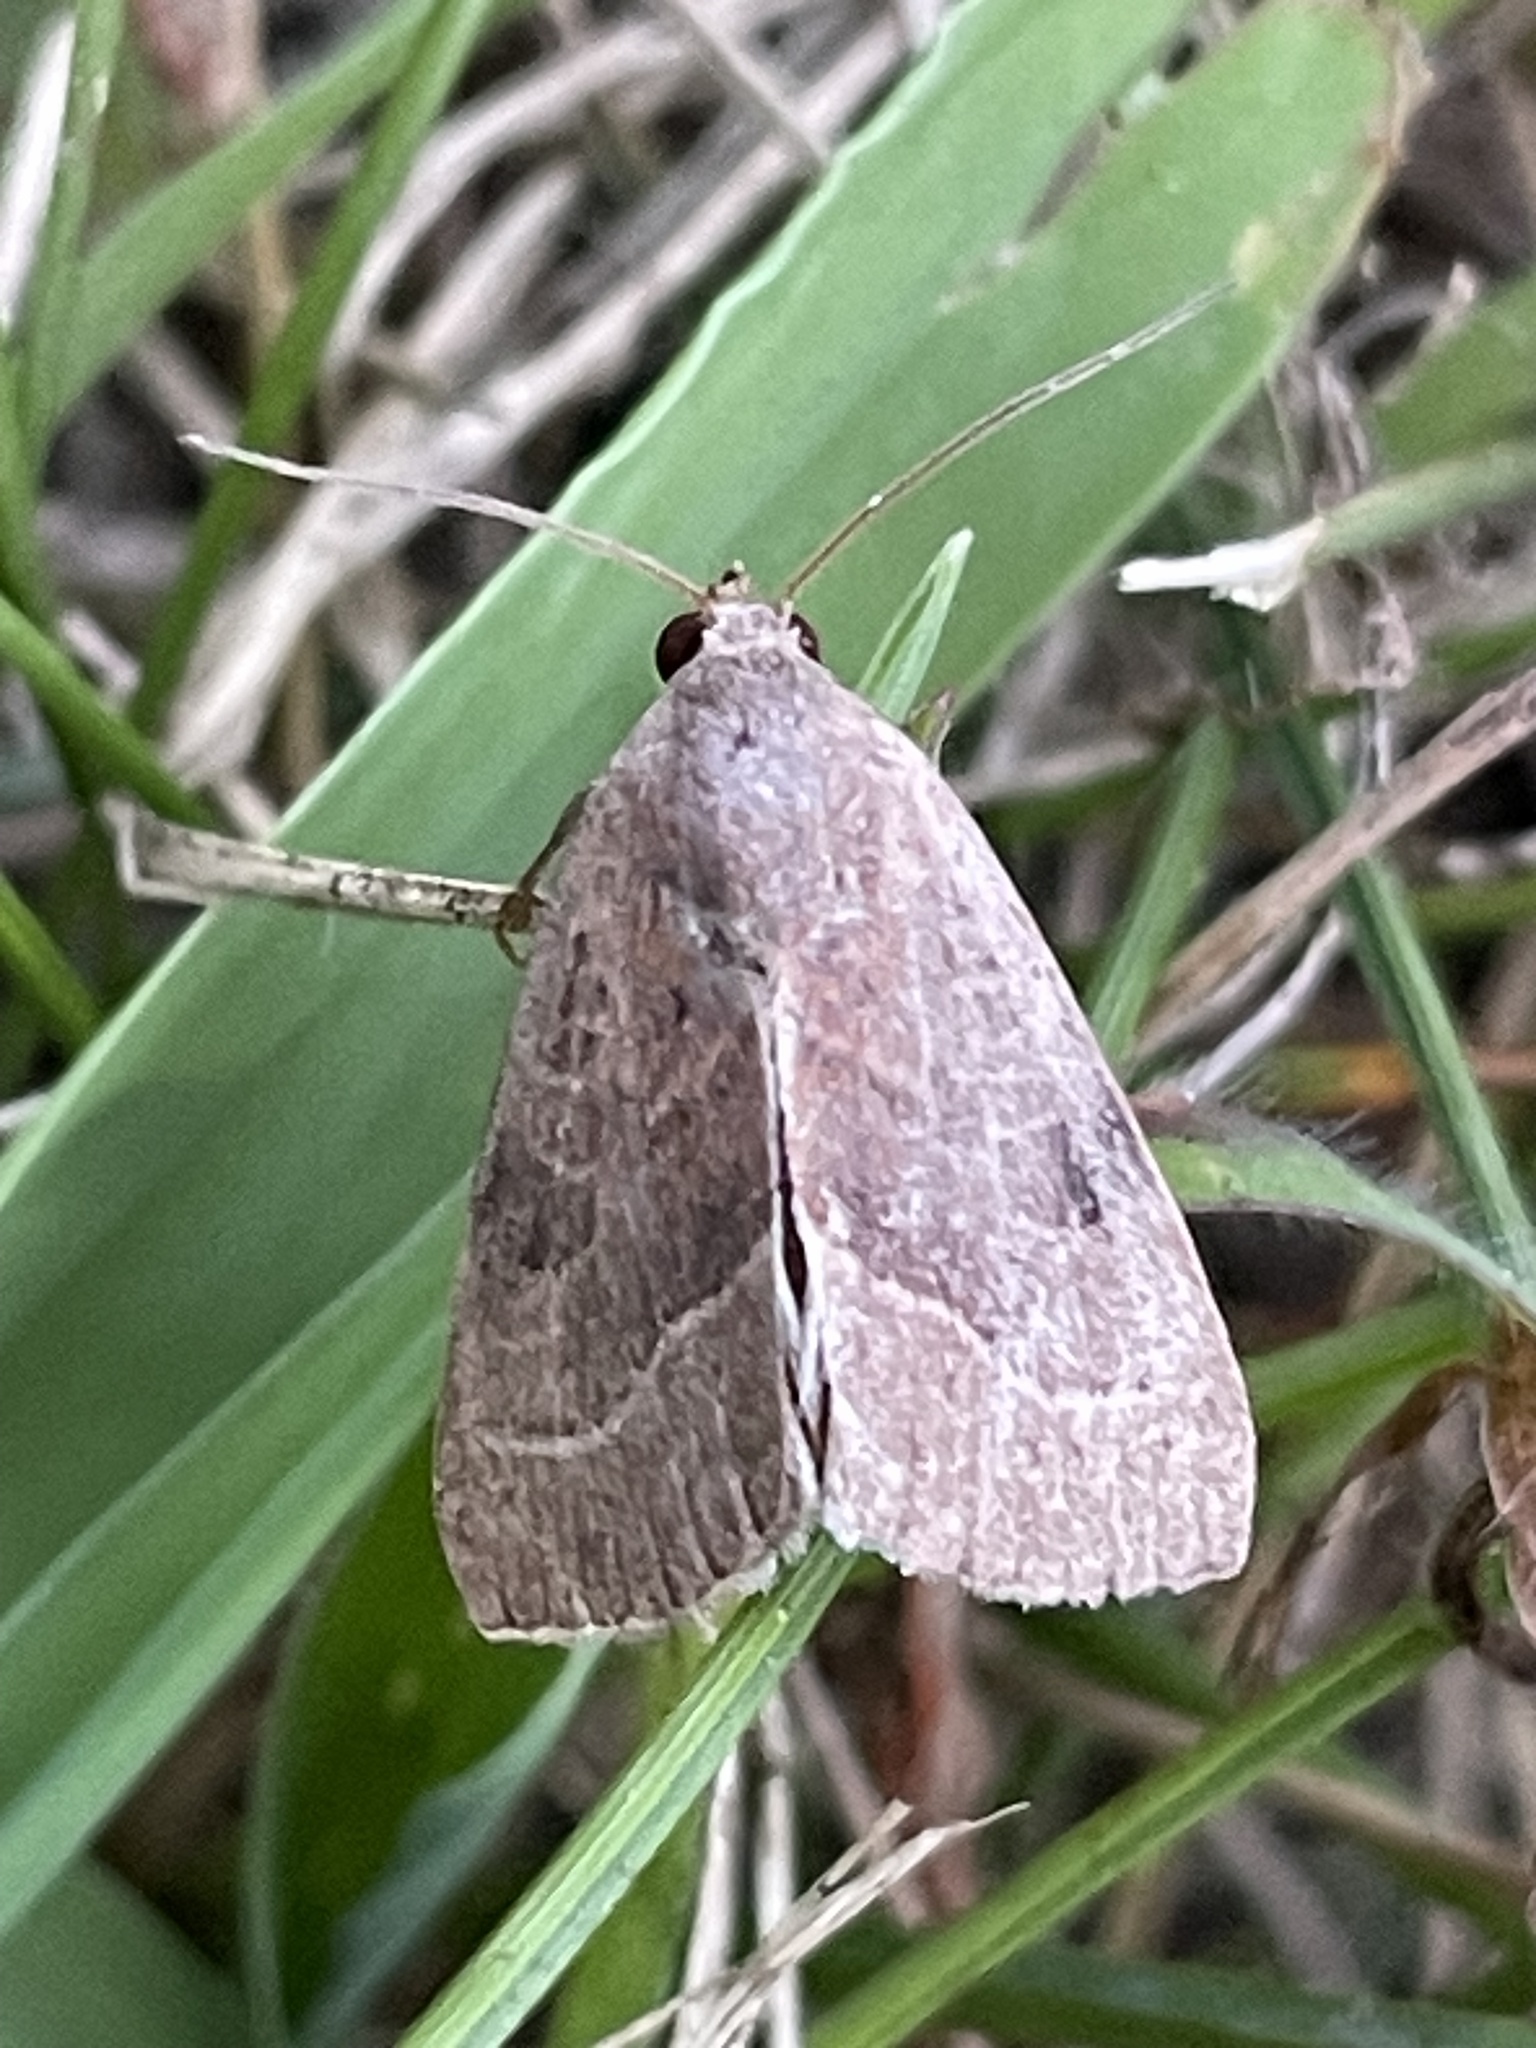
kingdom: Animalia
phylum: Arthropoda
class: Insecta
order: Lepidoptera
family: Noctuidae
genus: Galgula
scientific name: Galgula partita
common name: Wedgeling
